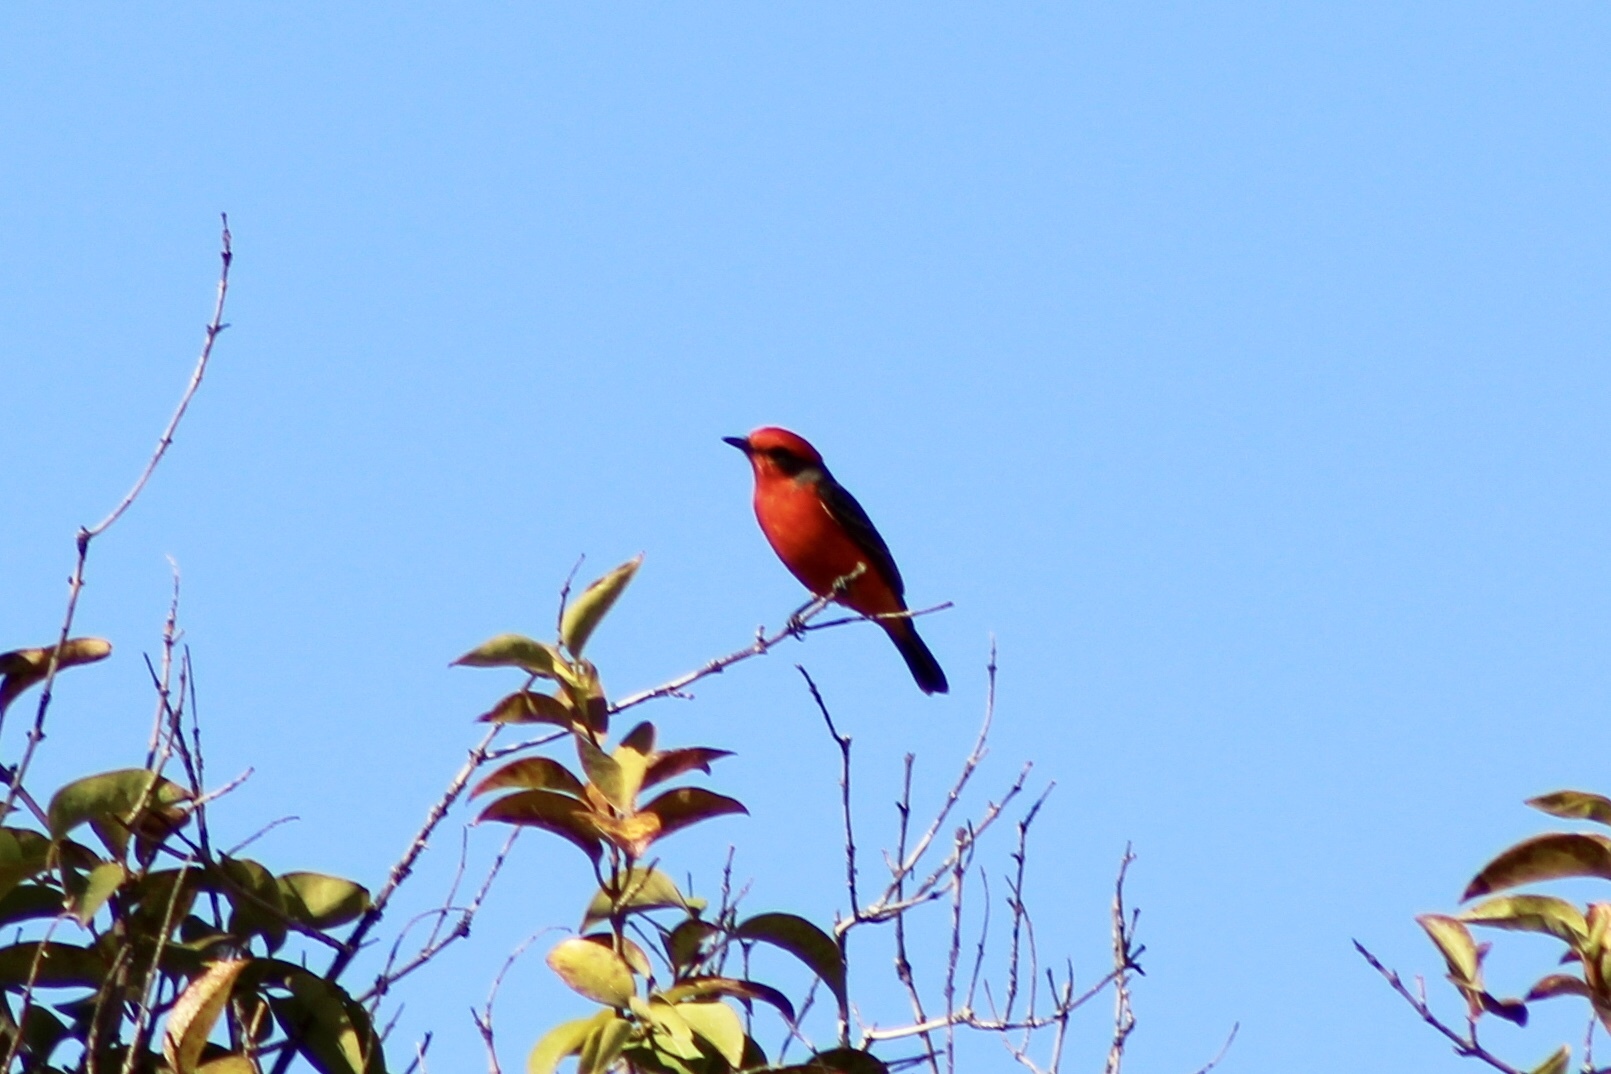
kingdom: Animalia
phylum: Chordata
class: Aves
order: Passeriformes
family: Tyrannidae
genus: Pyrocephalus
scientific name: Pyrocephalus rubinus
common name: Vermilion flycatcher
